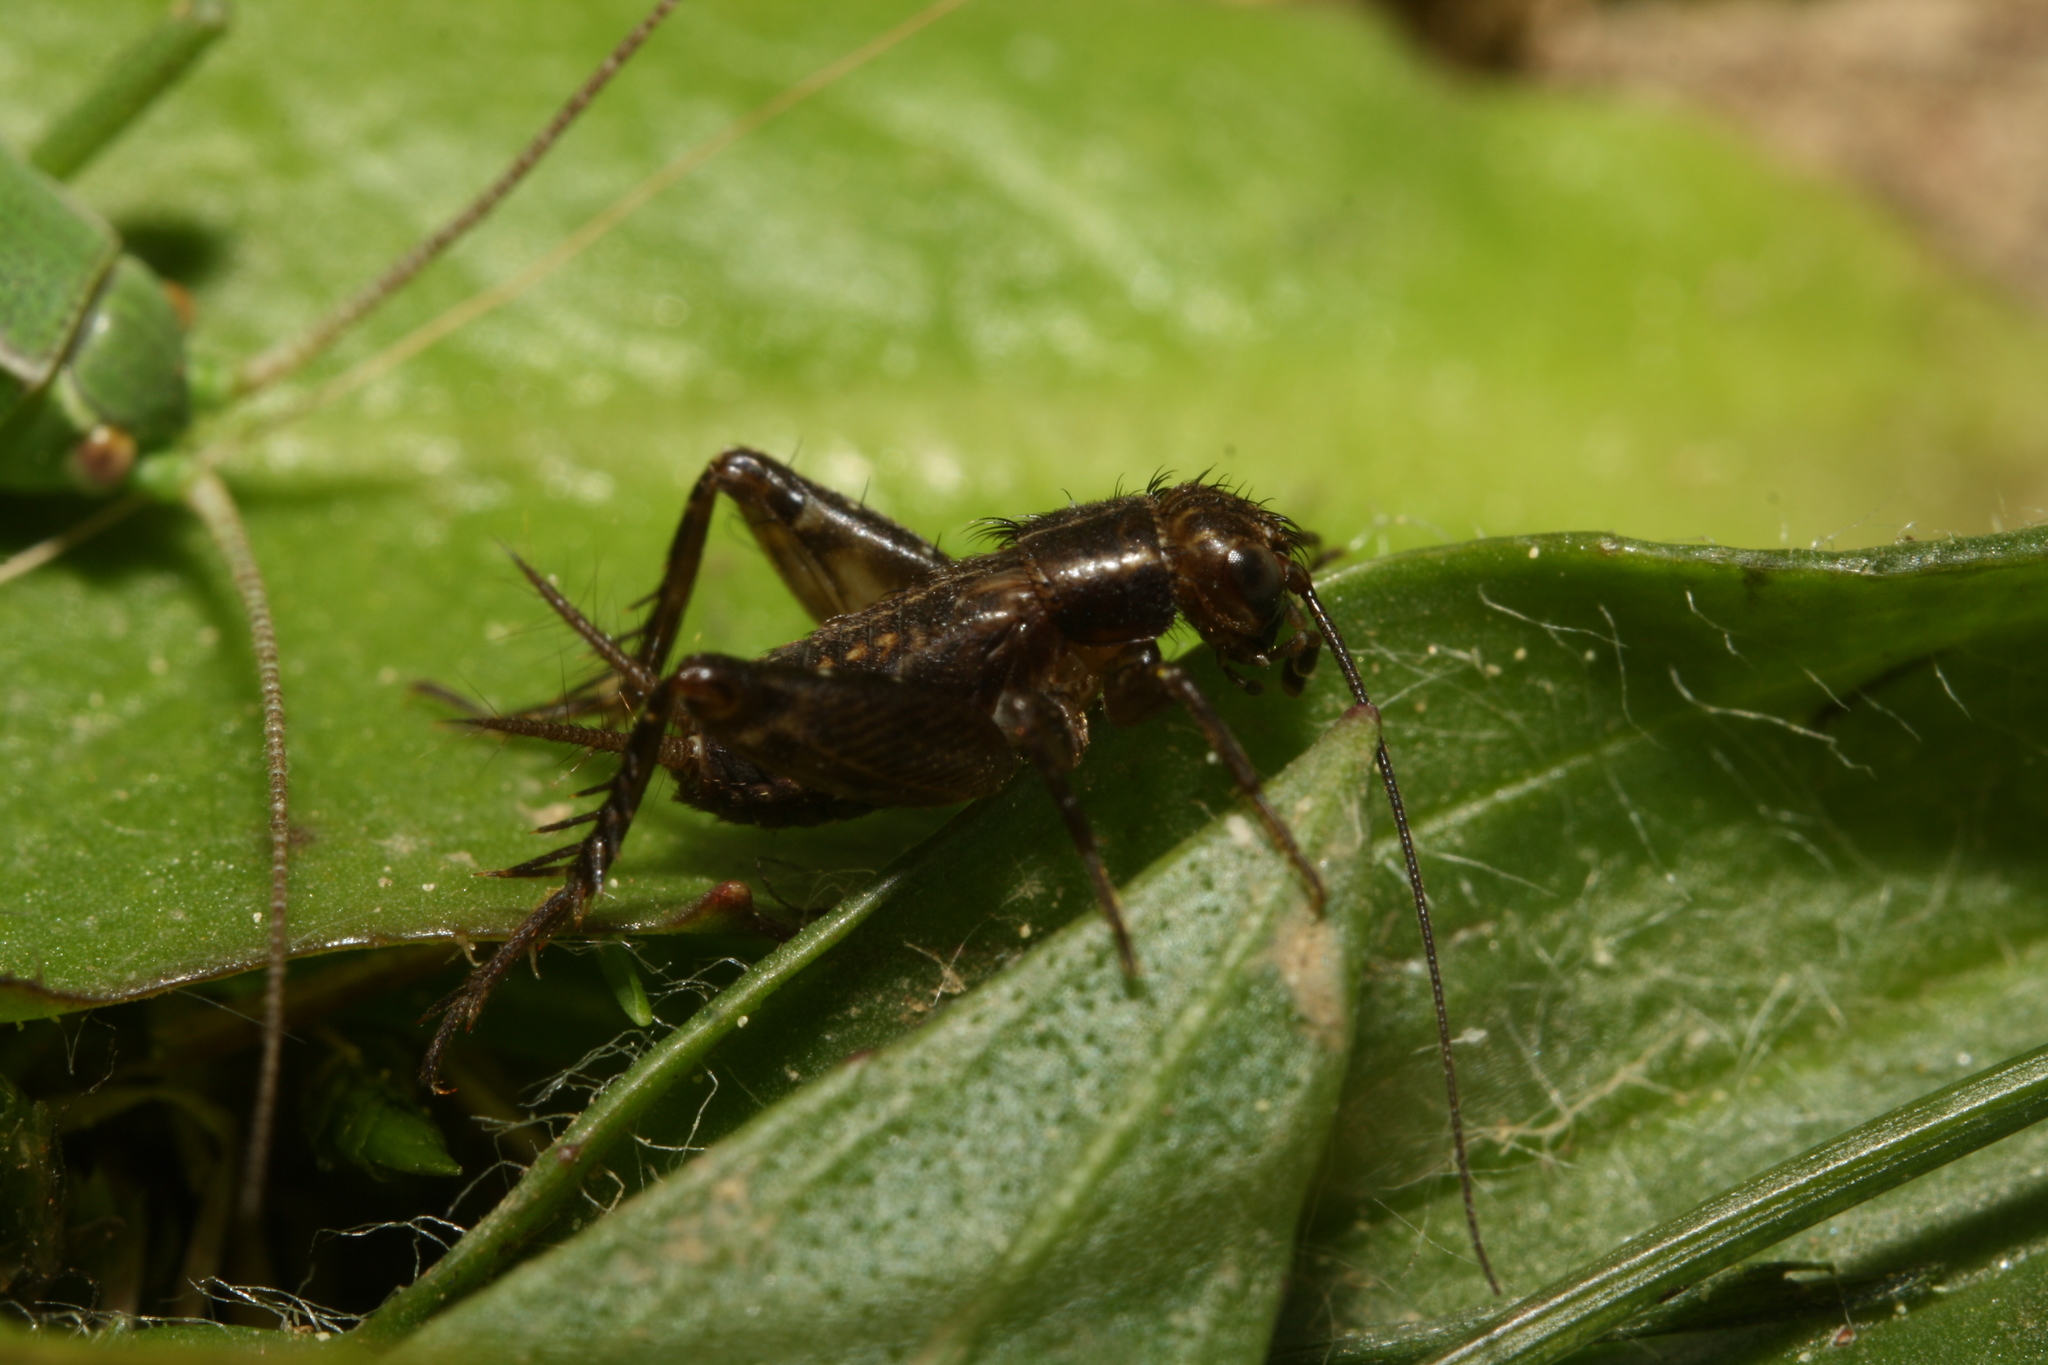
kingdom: Animalia
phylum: Arthropoda
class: Insecta
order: Orthoptera
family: Trigonidiidae
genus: Pteronemobius
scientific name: Pteronemobius heydenii
